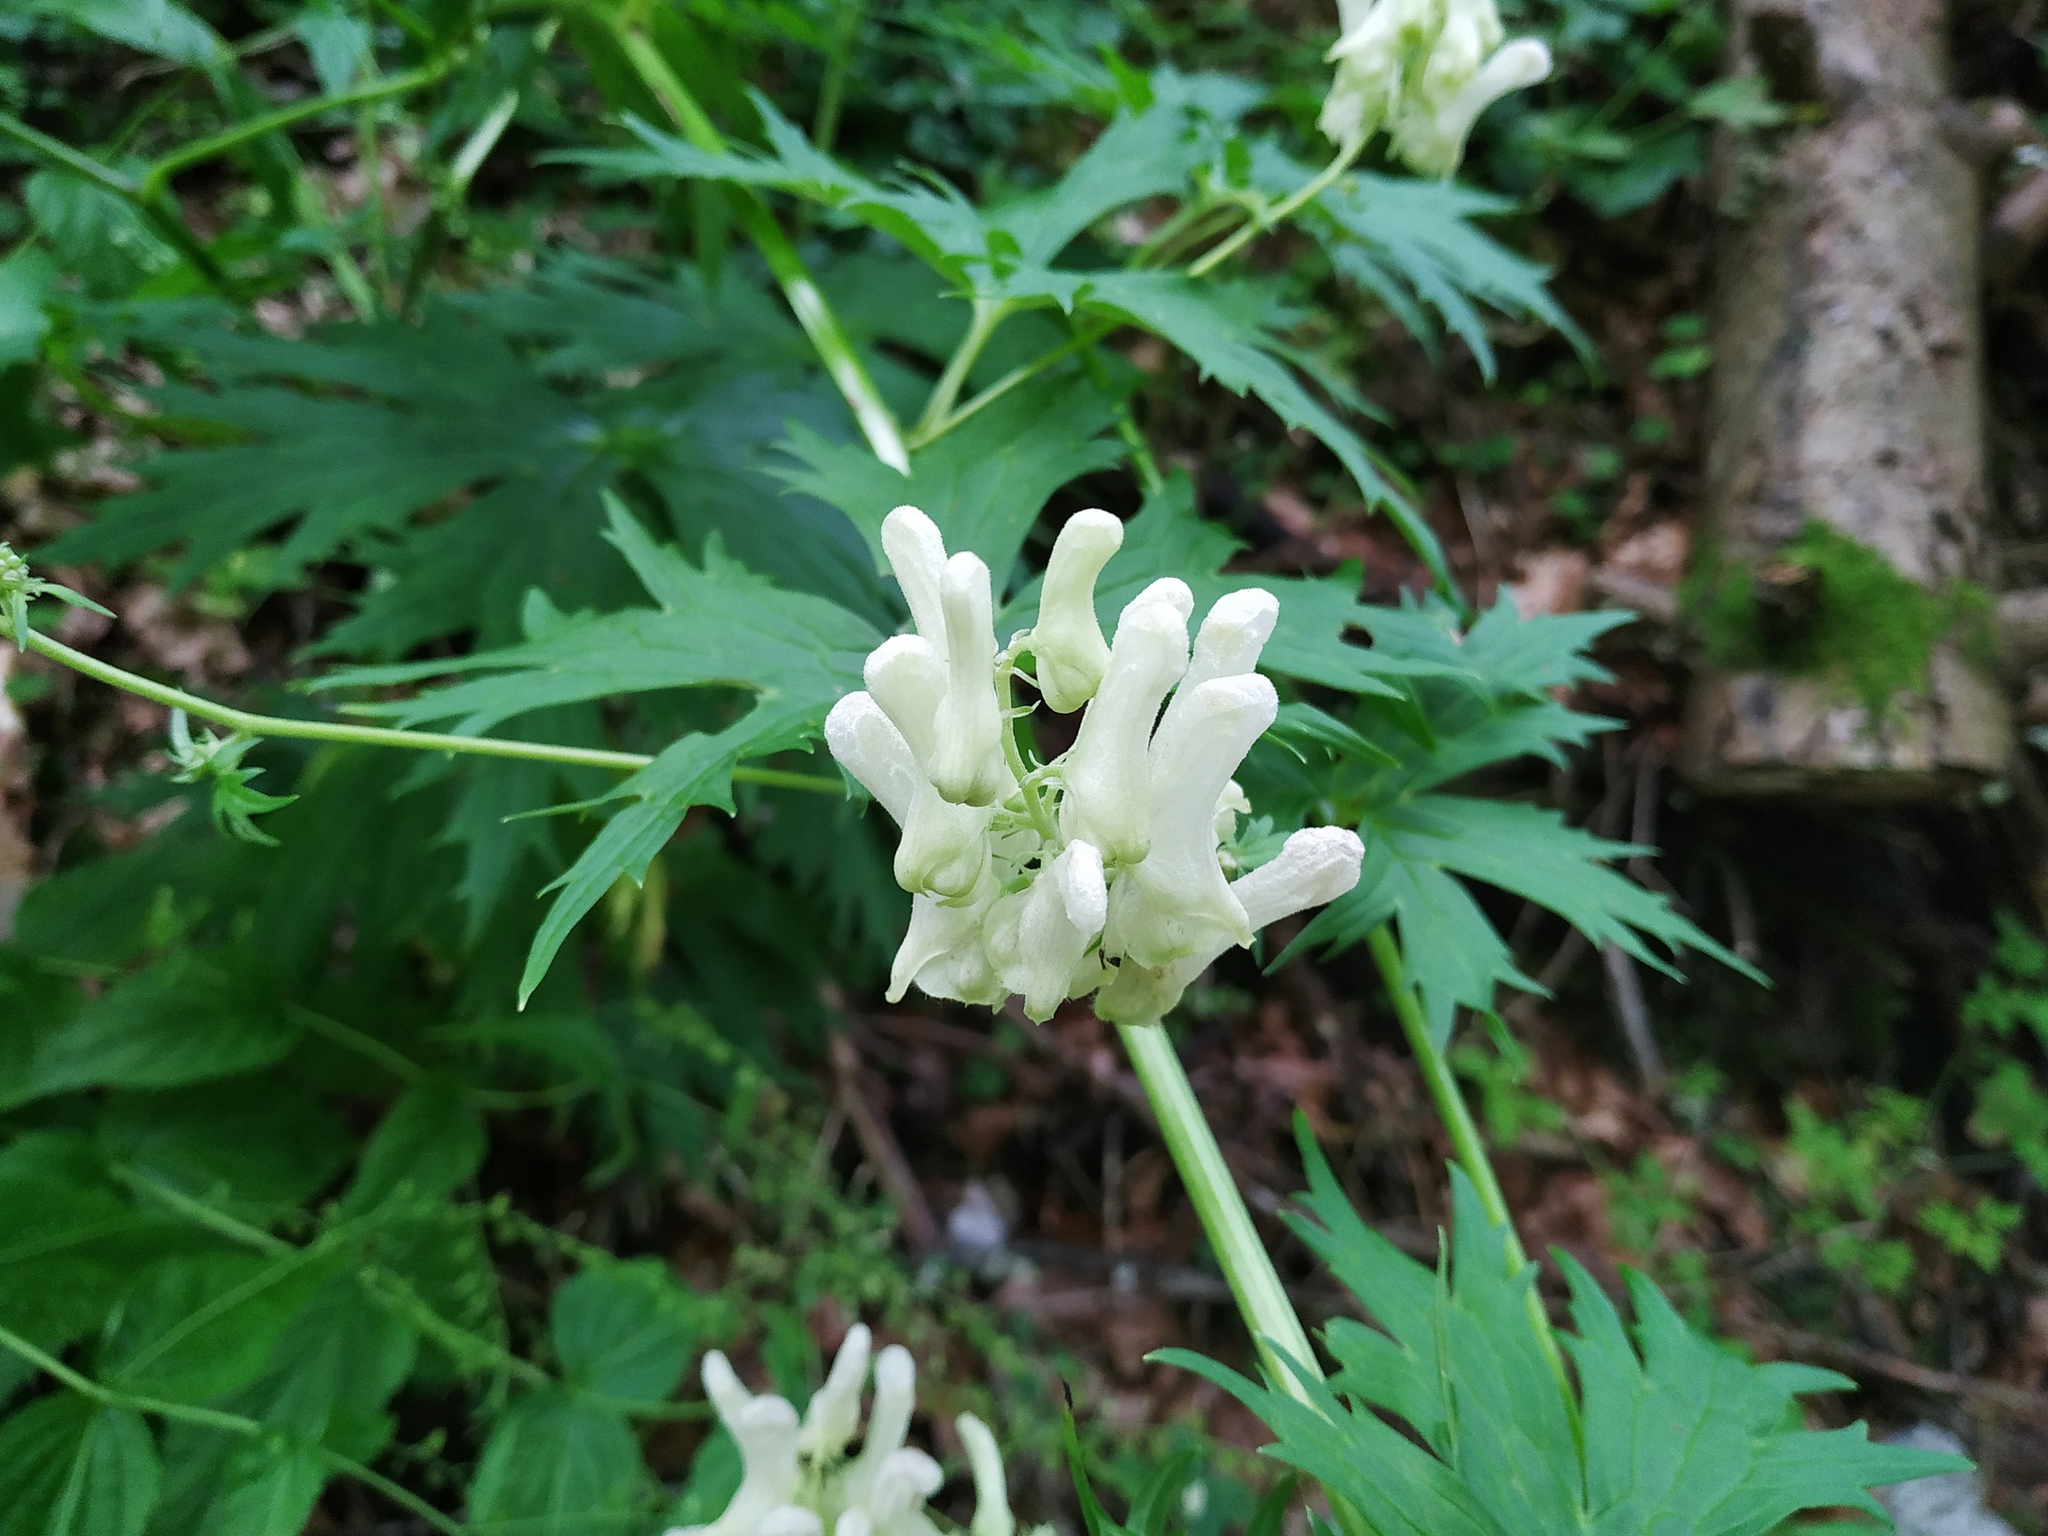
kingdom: Plantae
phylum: Tracheophyta
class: Magnoliopsida
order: Ranunculales
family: Ranunculaceae
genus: Aconitum
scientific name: Aconitum lycoctonum
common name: Wolf's-bane
